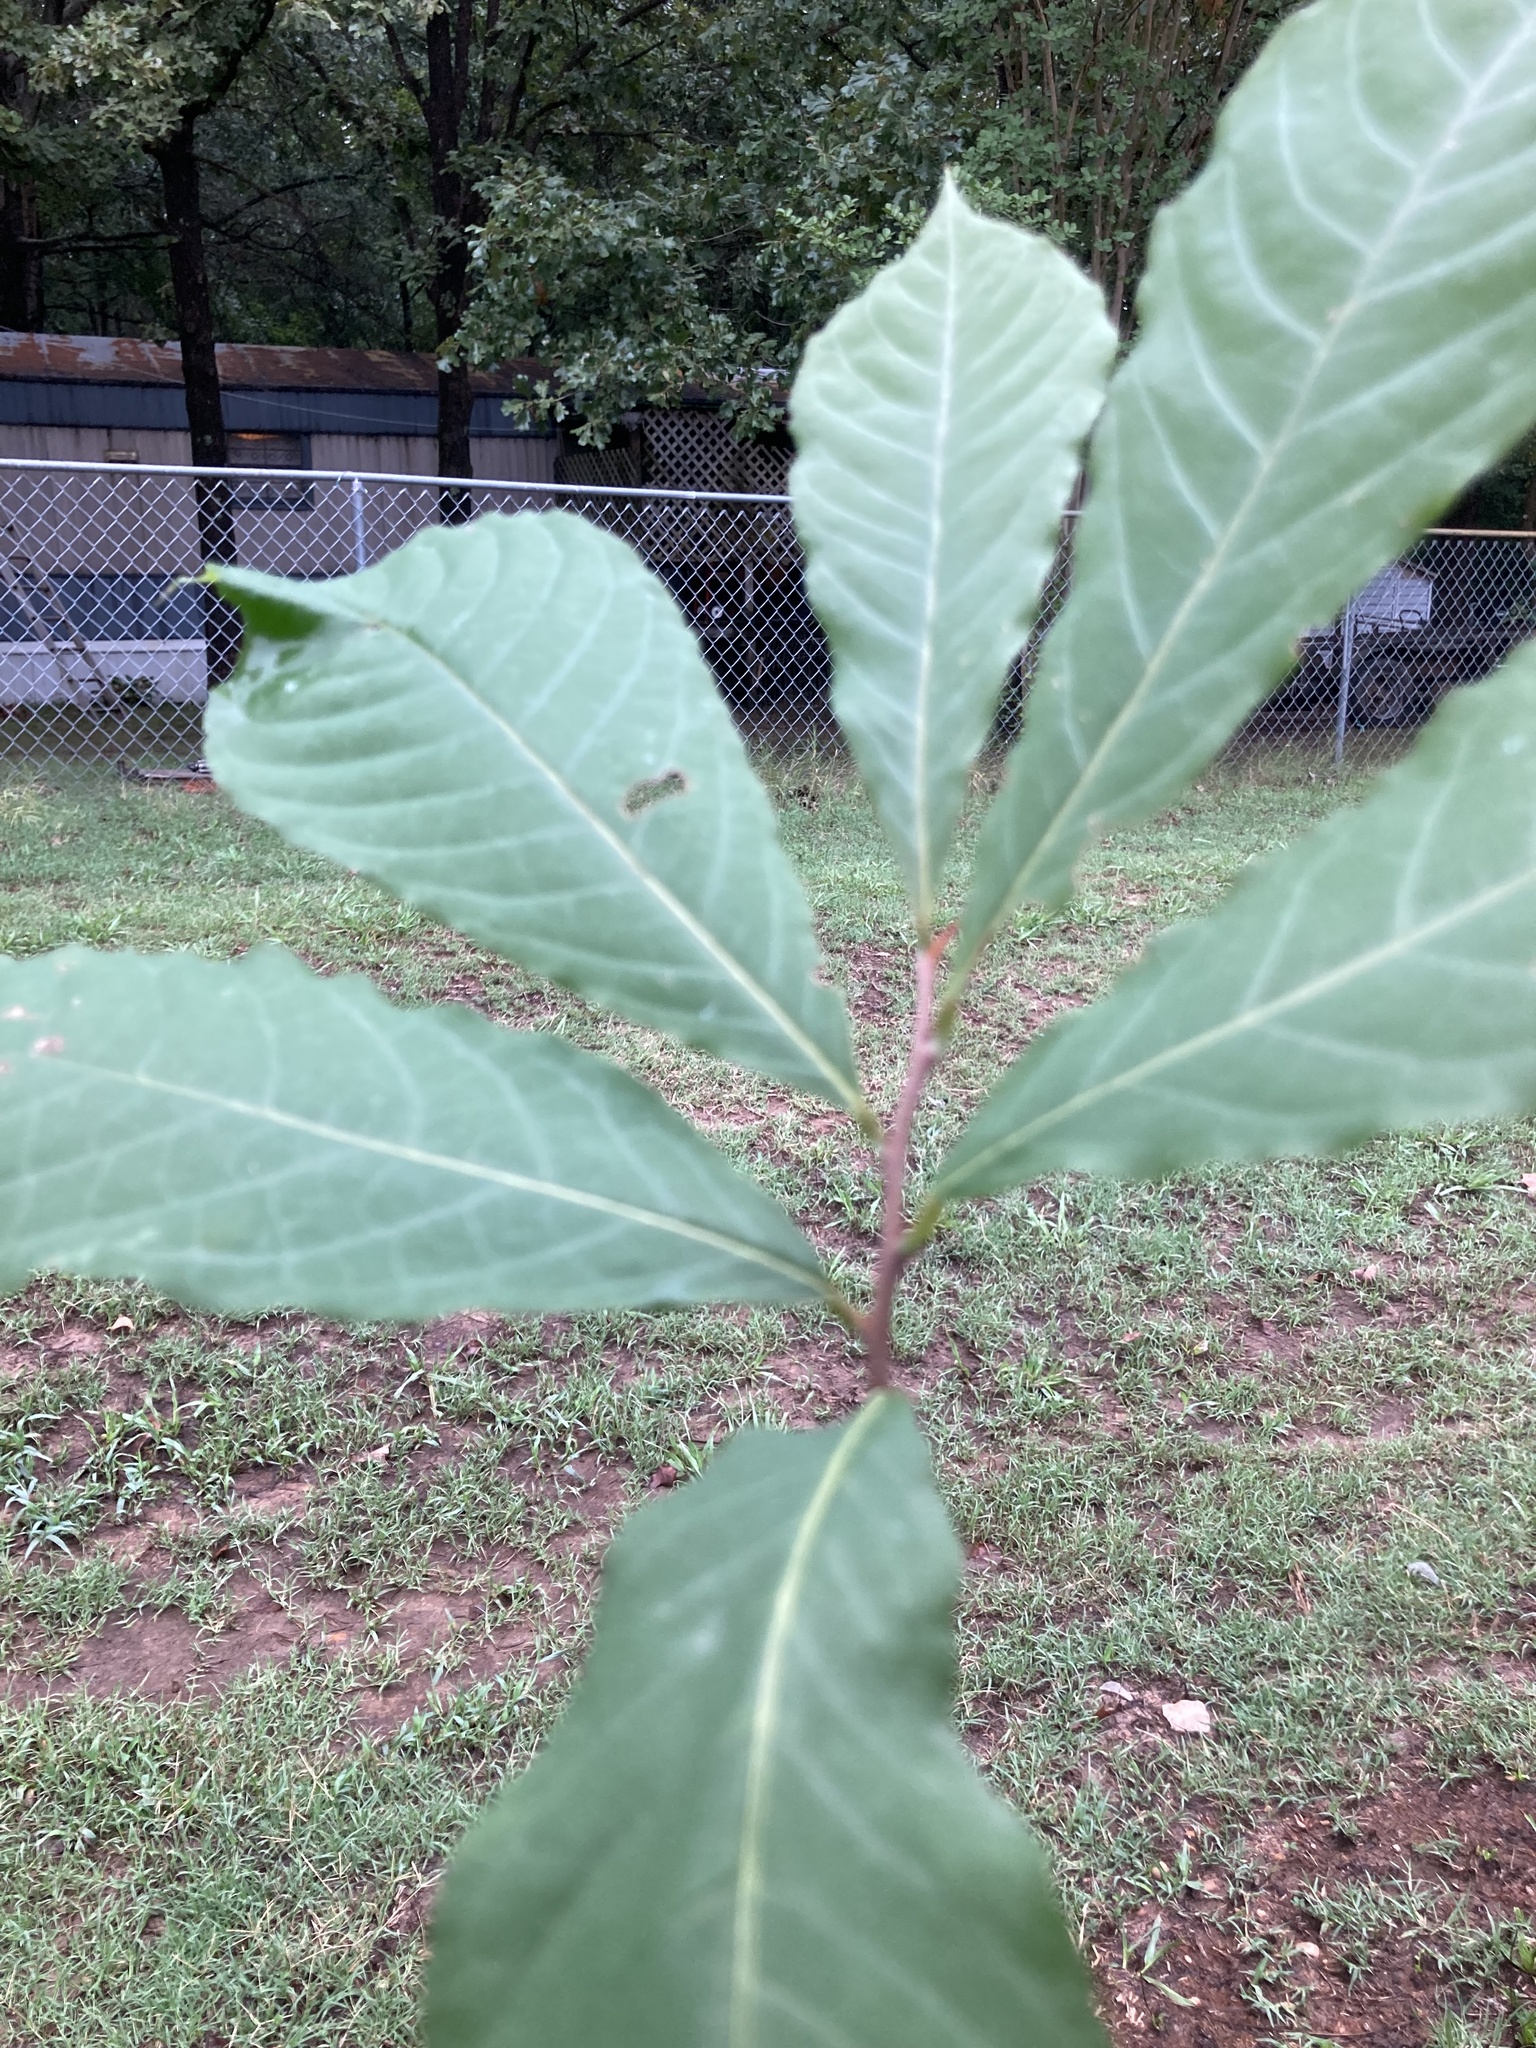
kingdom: Plantae
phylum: Tracheophyta
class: Magnoliopsida
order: Magnoliales
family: Annonaceae
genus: Asimina
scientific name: Asimina triloba
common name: Dog-banana
